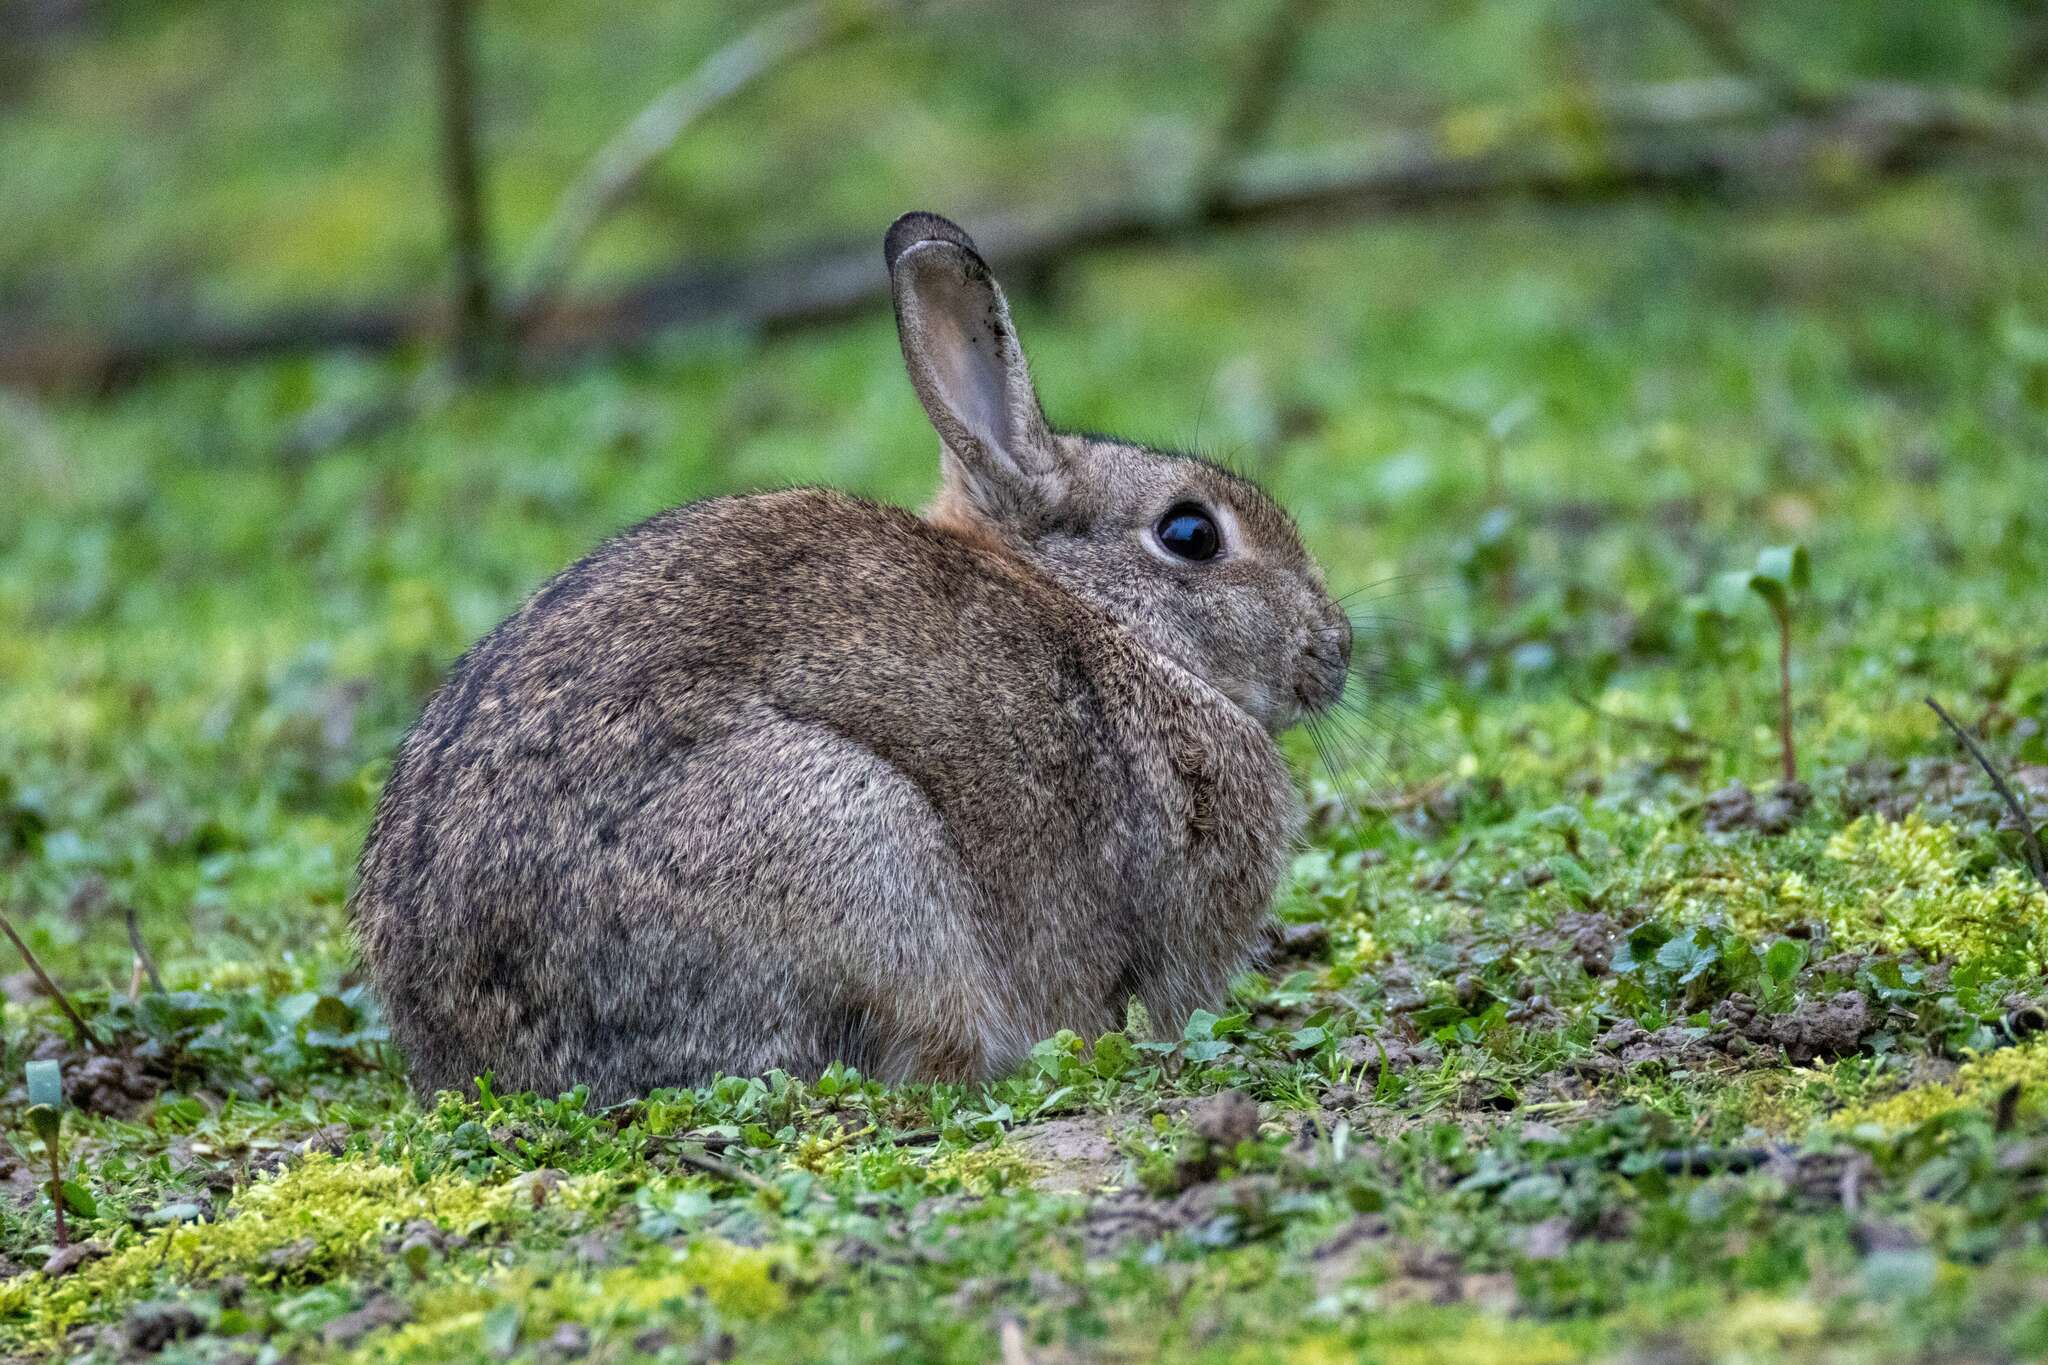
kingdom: Animalia
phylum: Chordata
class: Mammalia
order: Lagomorpha
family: Leporidae
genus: Oryctolagus
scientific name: Oryctolagus cuniculus
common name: European rabbit
